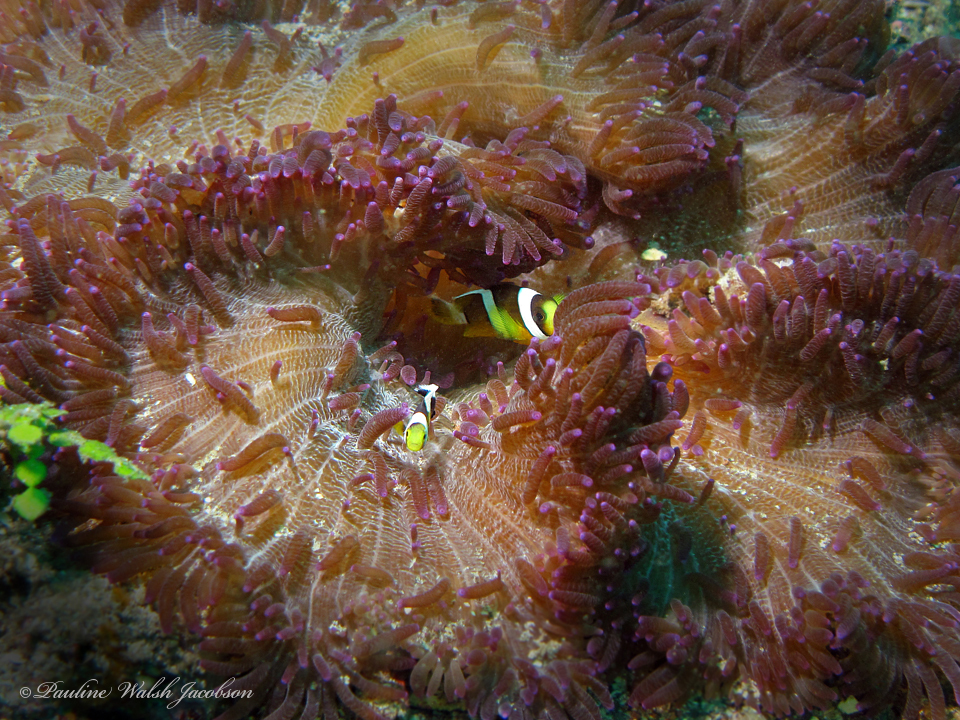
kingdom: Animalia
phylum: Chordata
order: Perciformes
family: Pomacentridae
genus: Amphiprion
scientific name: Amphiprion clarkii
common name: Clark's anemonefish
